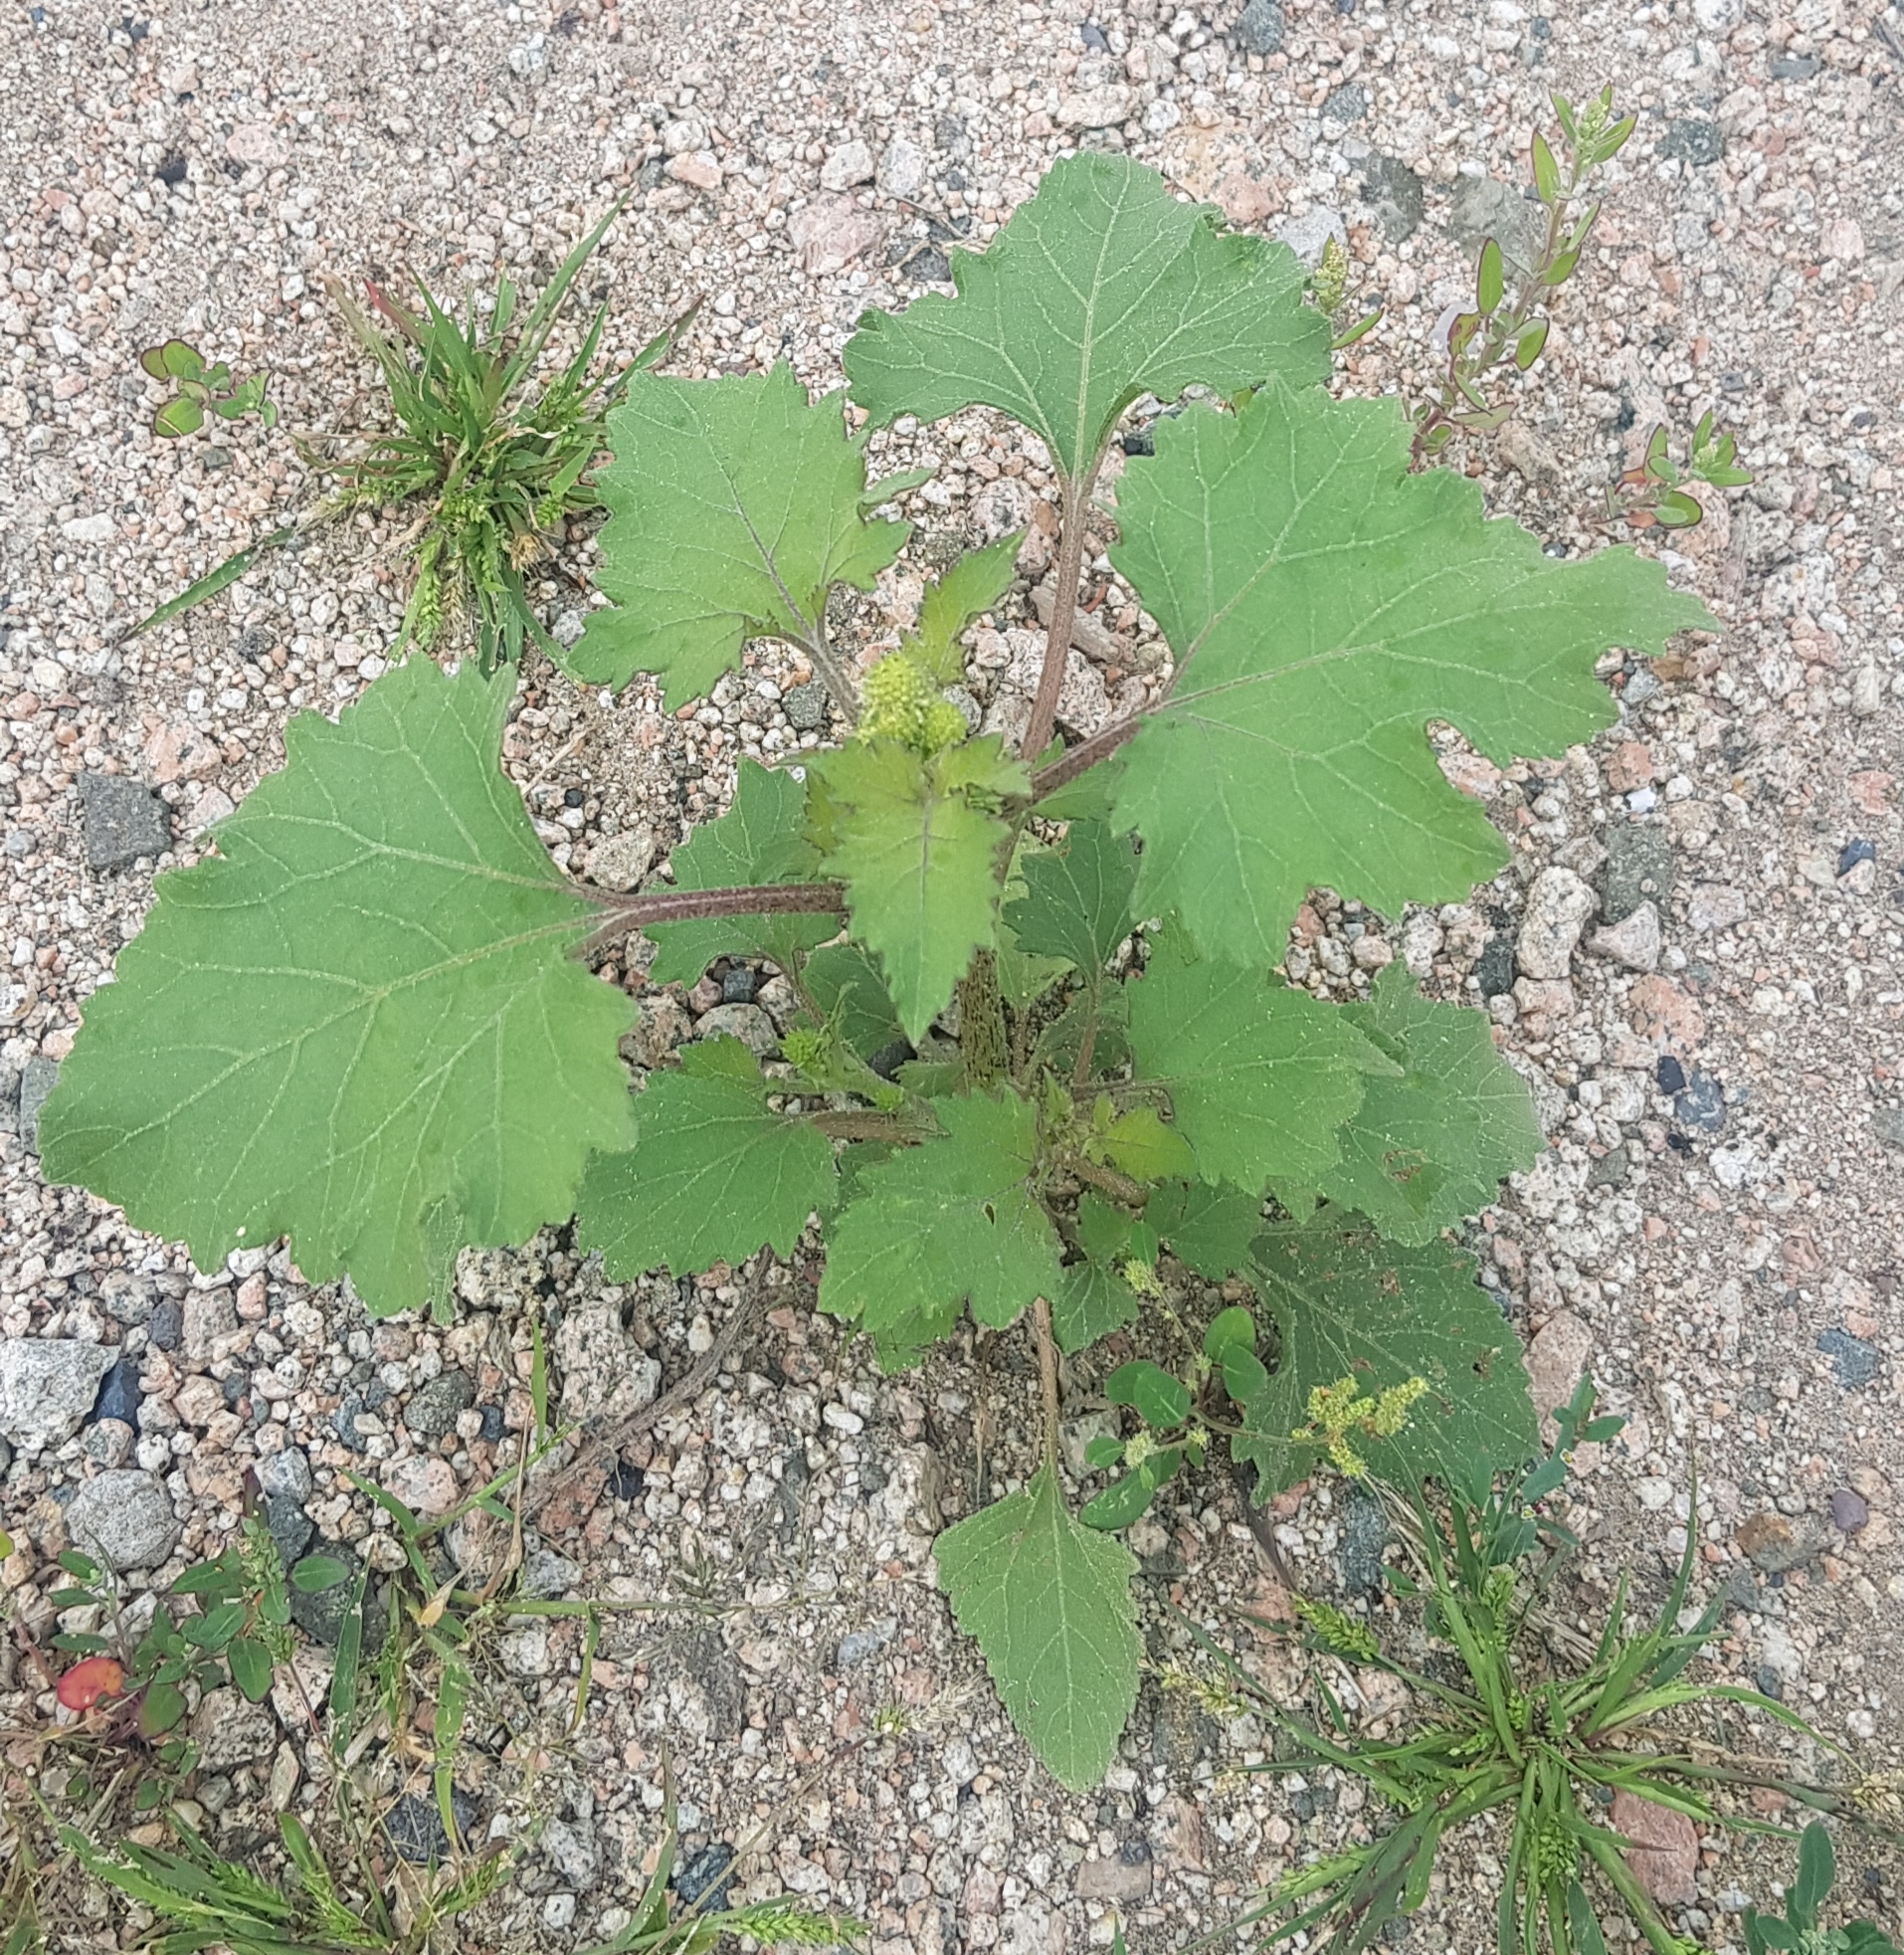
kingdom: Plantae
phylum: Tracheophyta
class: Magnoliopsida
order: Asterales
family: Asteraceae
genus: Xanthium
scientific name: Xanthium strumarium
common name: Rough cocklebur
